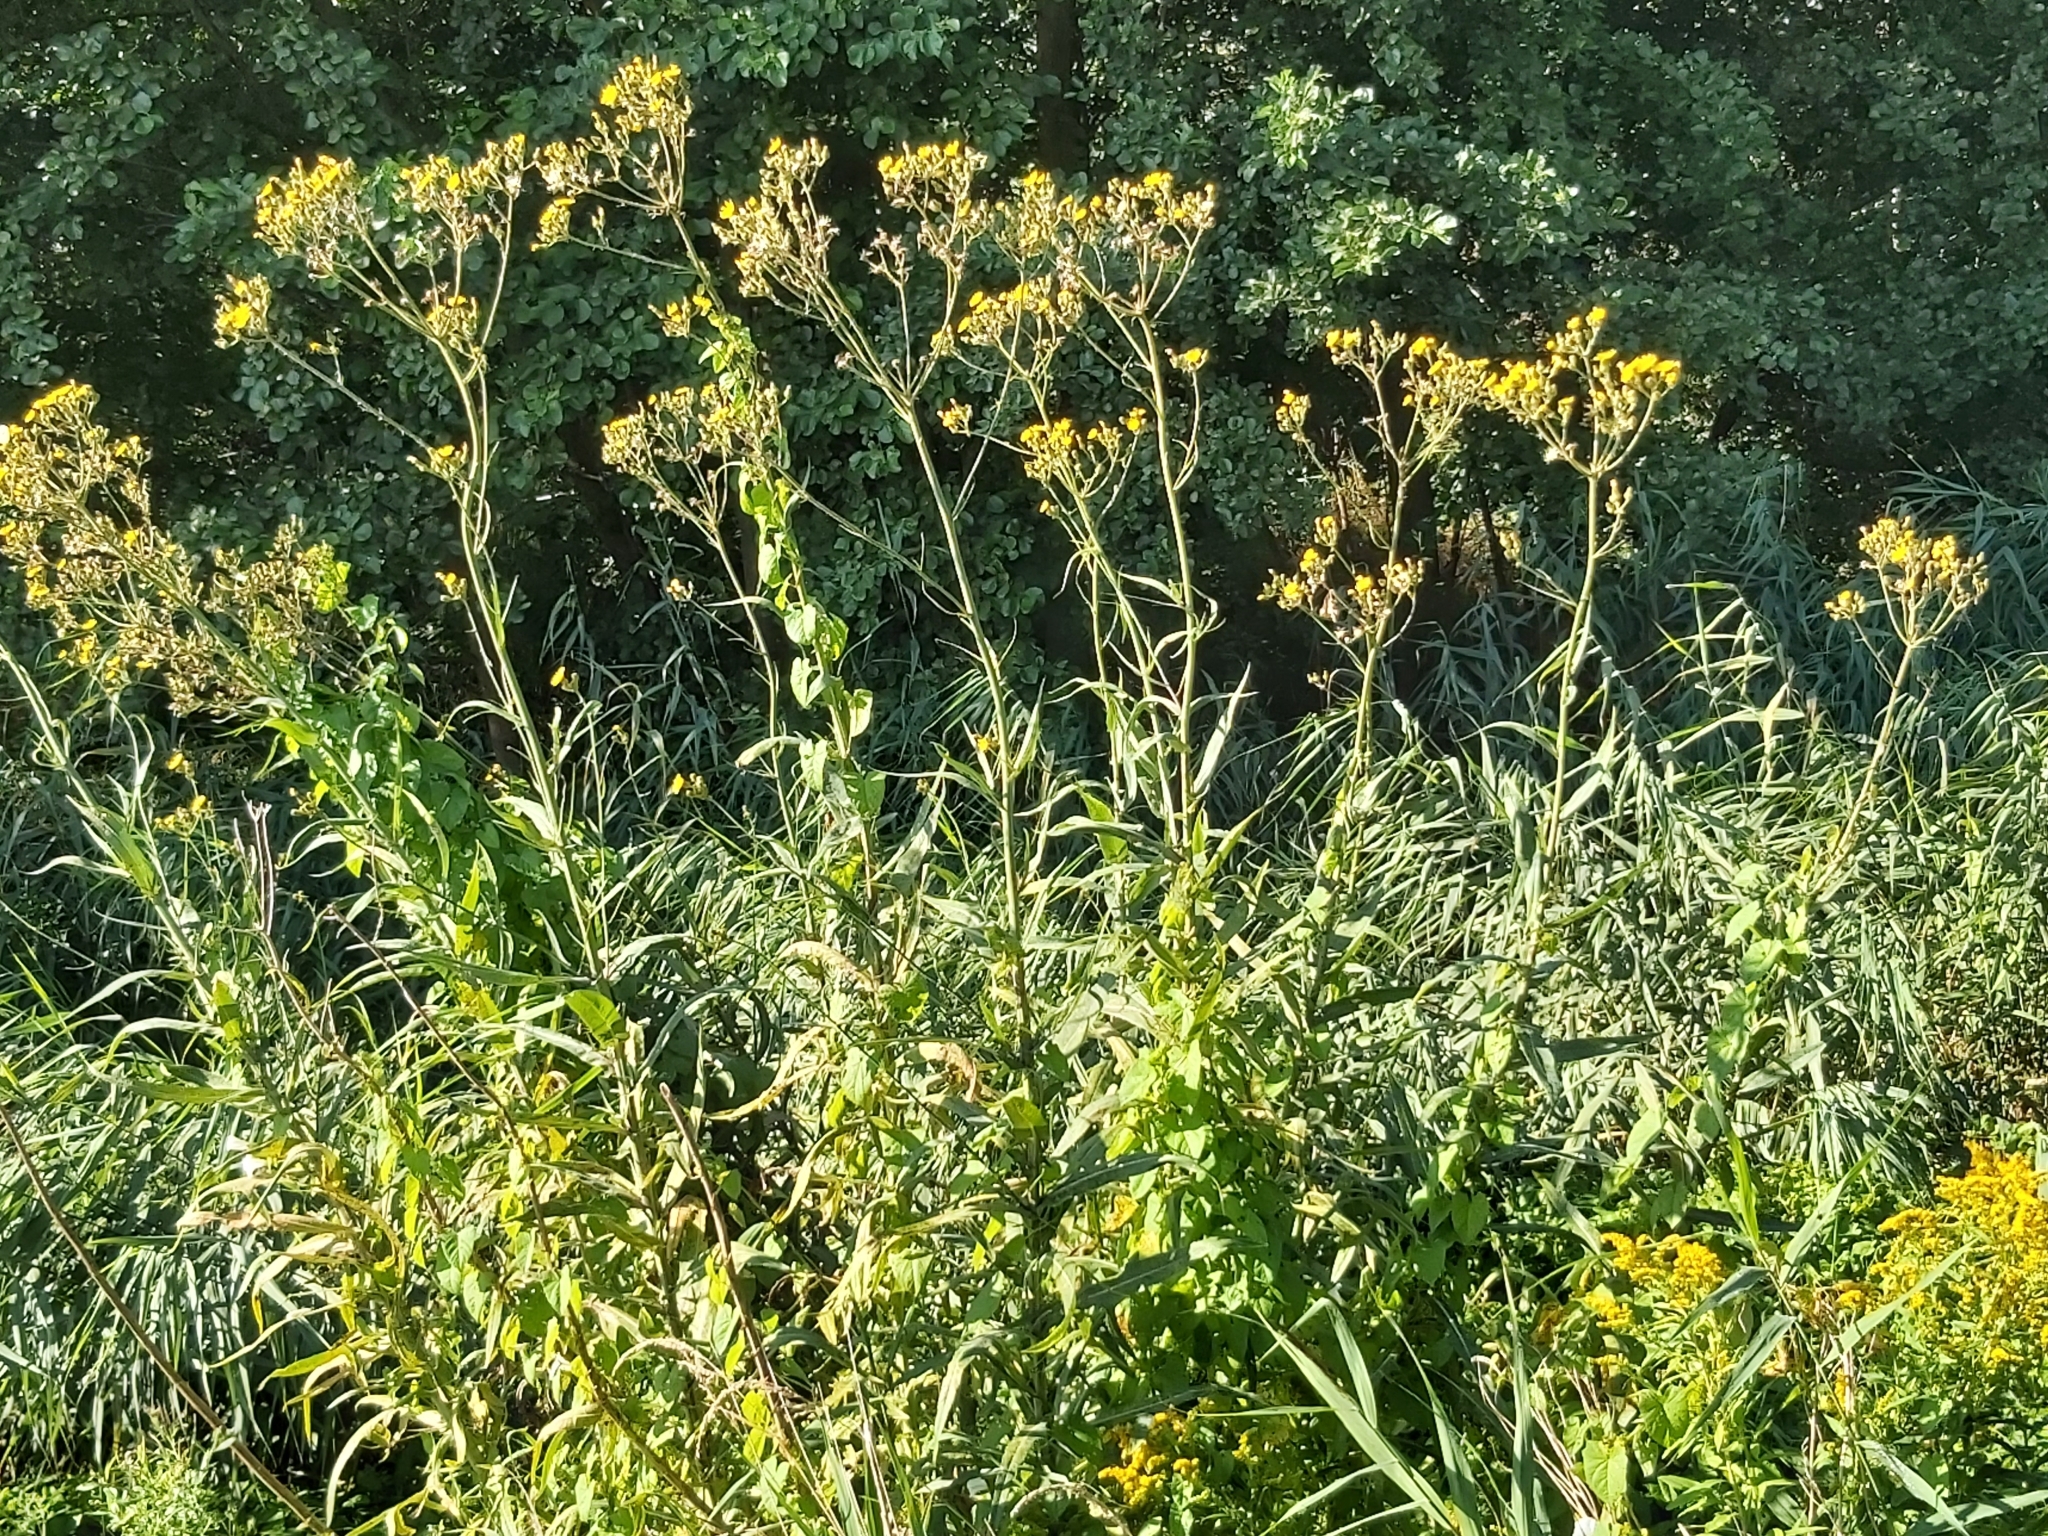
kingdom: Plantae
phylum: Tracheophyta
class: Magnoliopsida
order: Asterales
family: Asteraceae
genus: Sonchus
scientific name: Sonchus palustris
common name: Marsh sow-thistle
